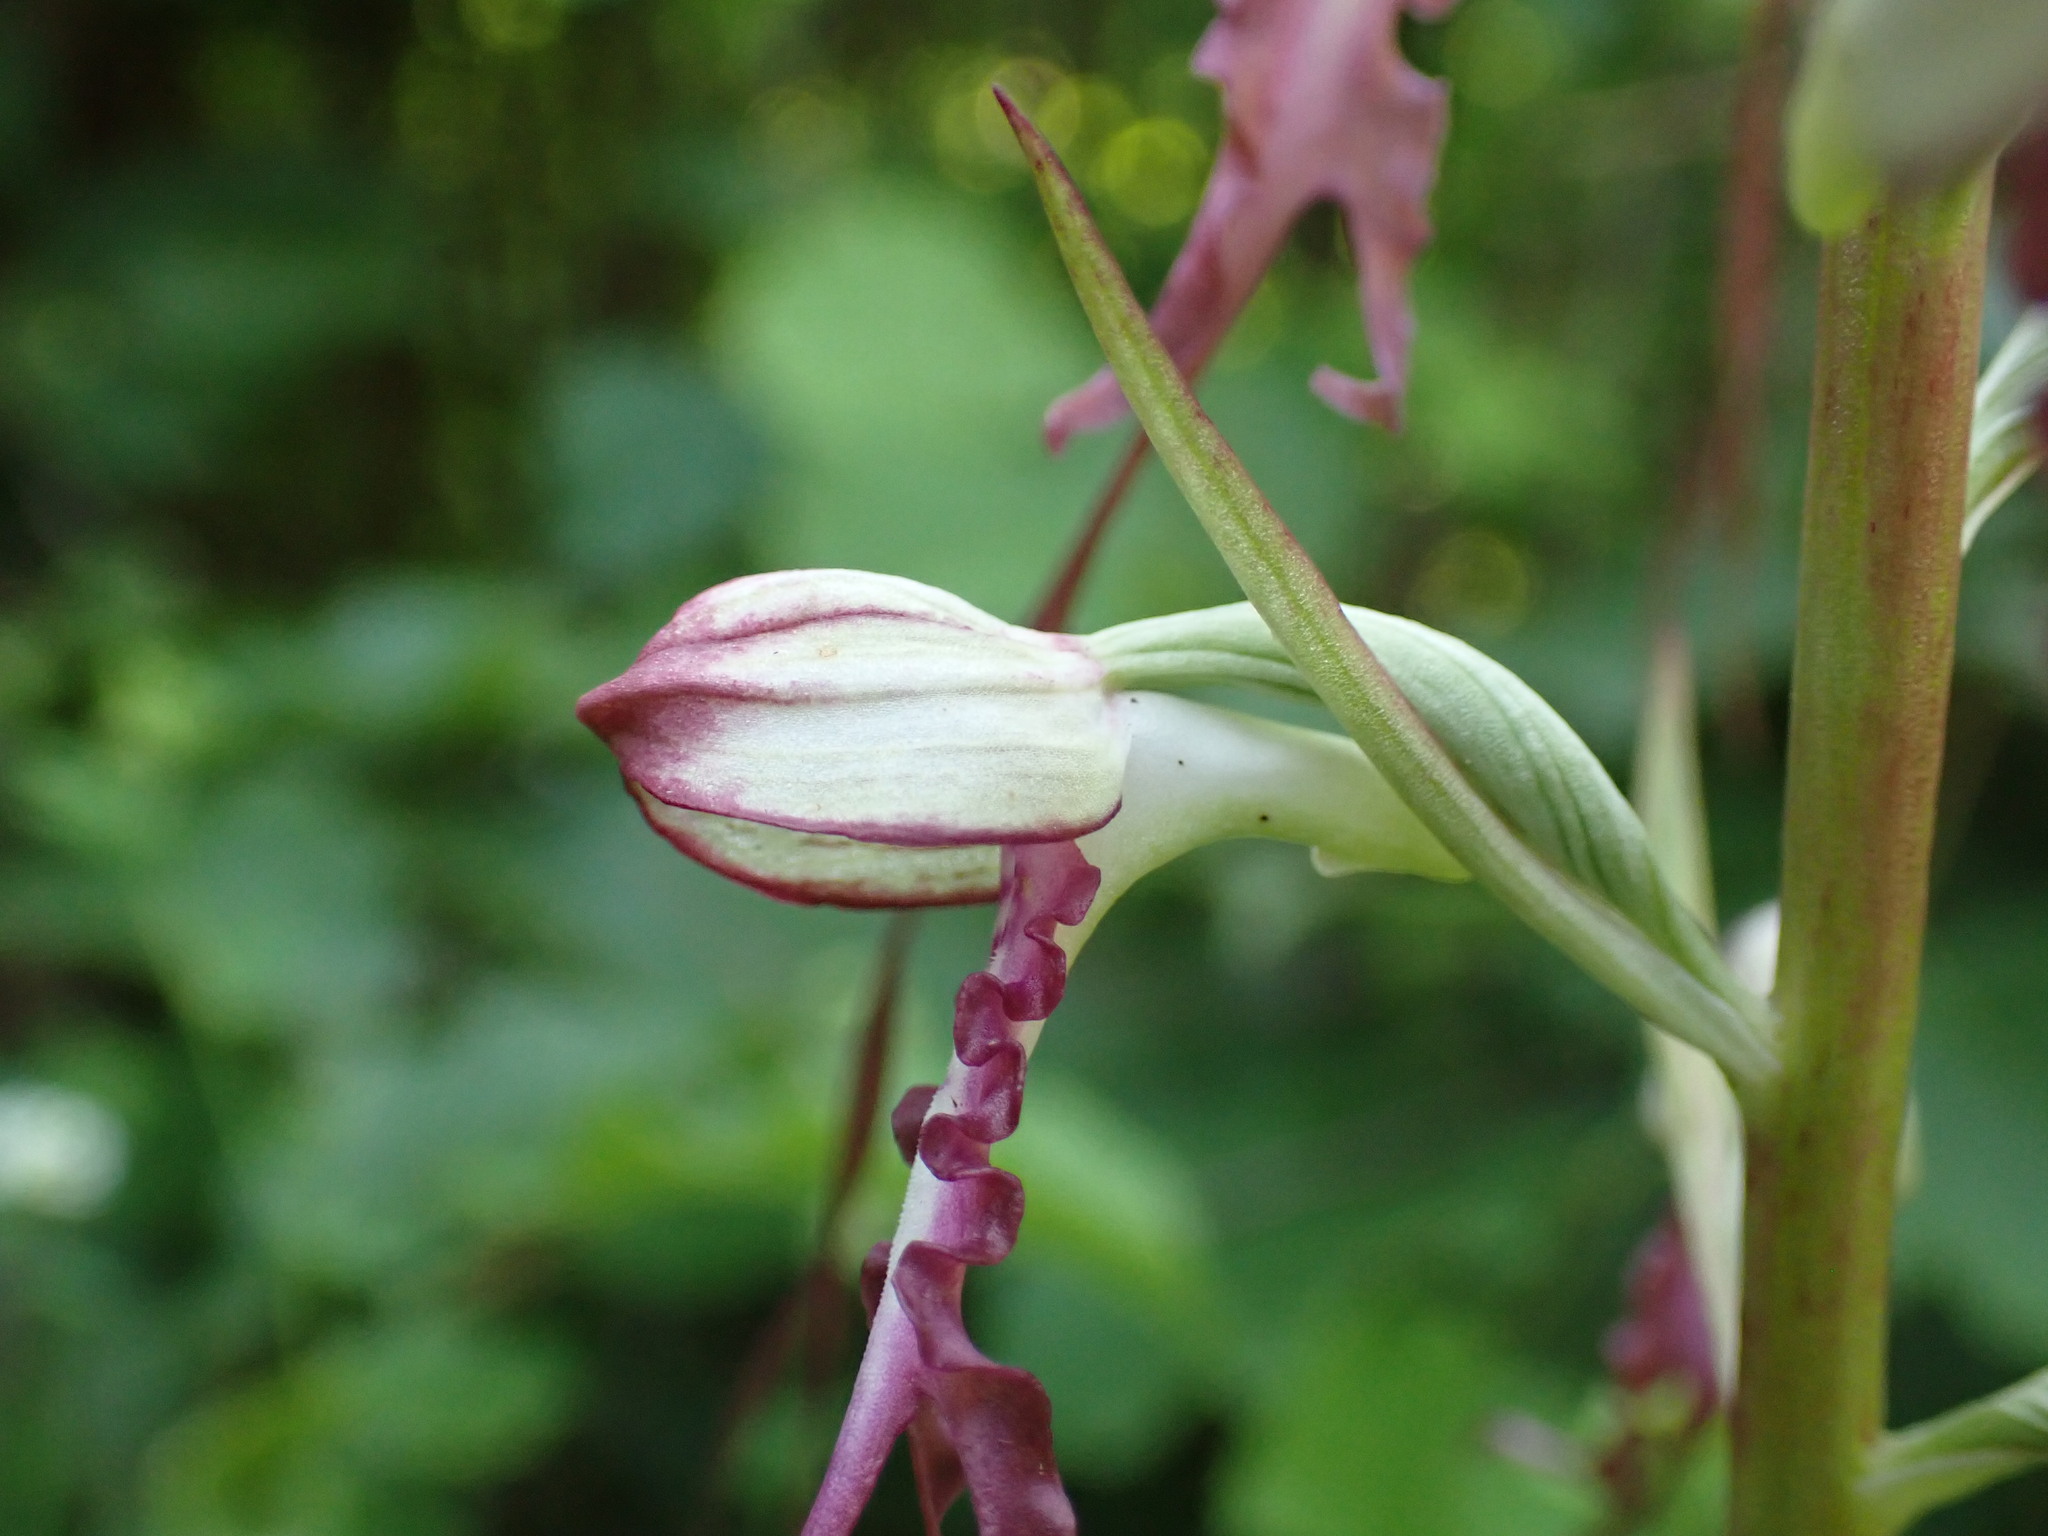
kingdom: Plantae
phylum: Tracheophyta
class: Liliopsida
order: Asparagales
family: Orchidaceae
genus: Himantoglossum
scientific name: Himantoglossum adriaticum
